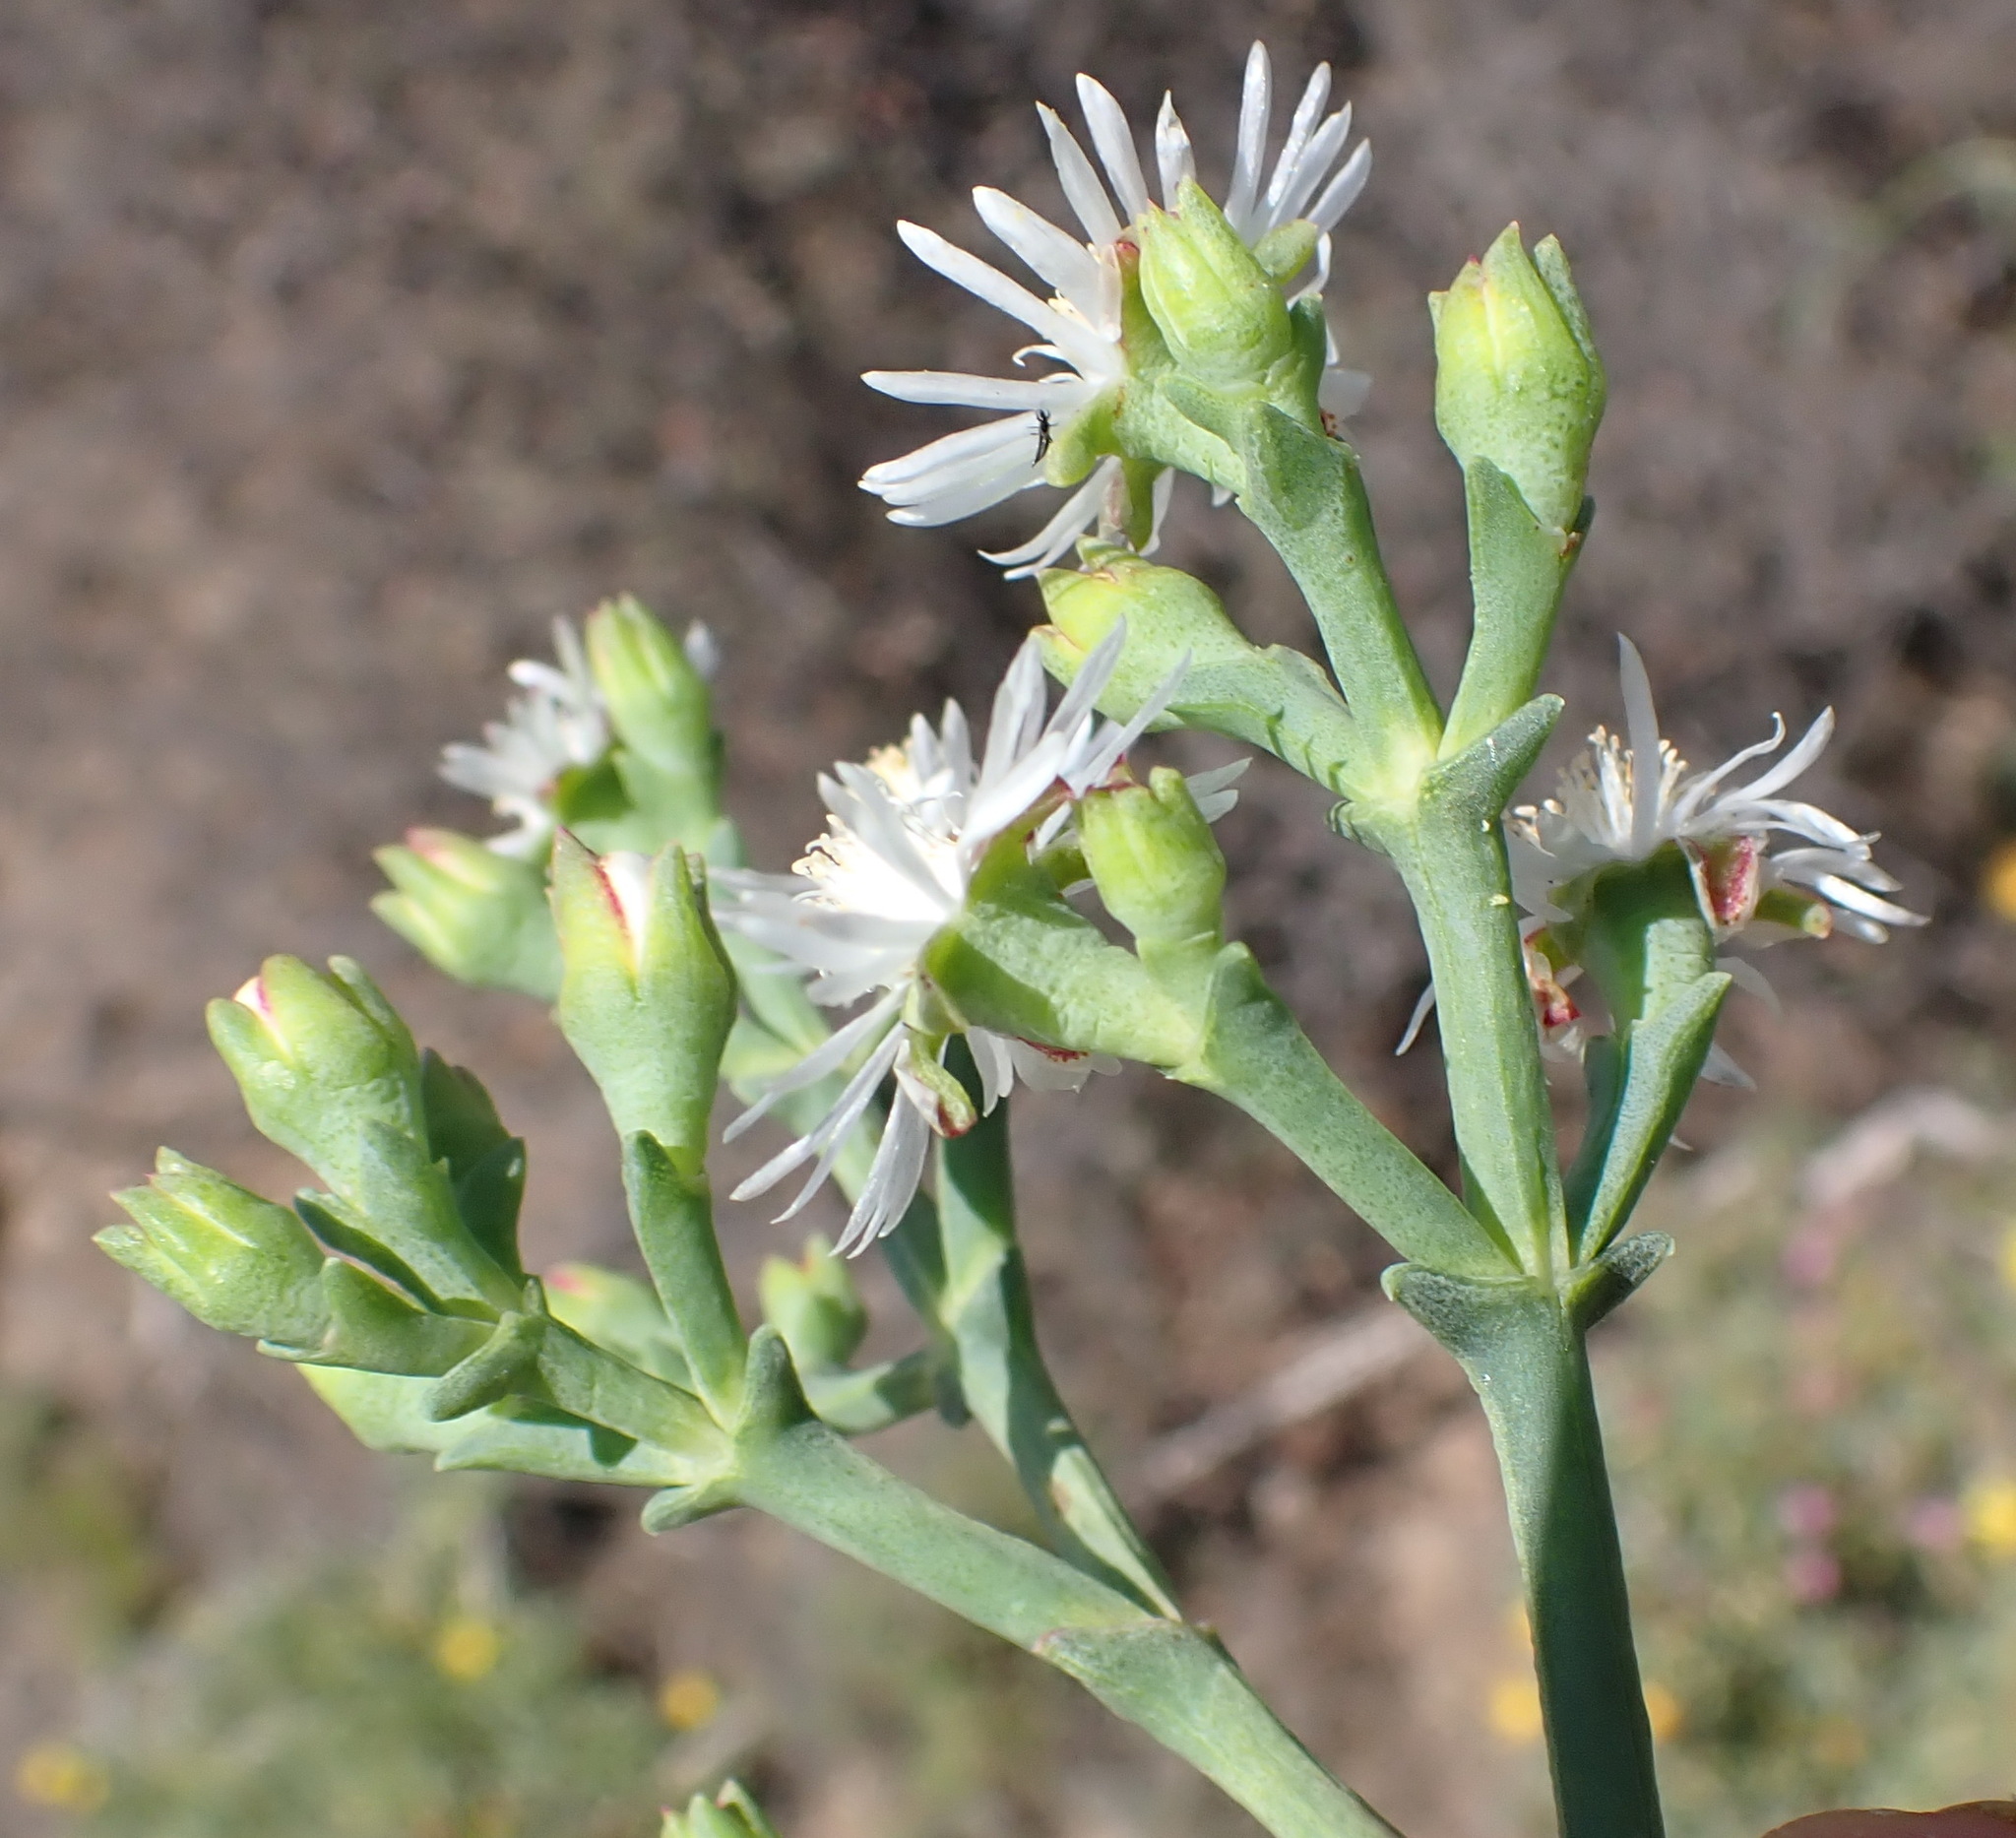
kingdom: Plantae
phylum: Tracheophyta
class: Magnoliopsida
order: Caryophyllales
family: Aizoaceae
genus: Ruschia
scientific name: Ruschia multiflora
